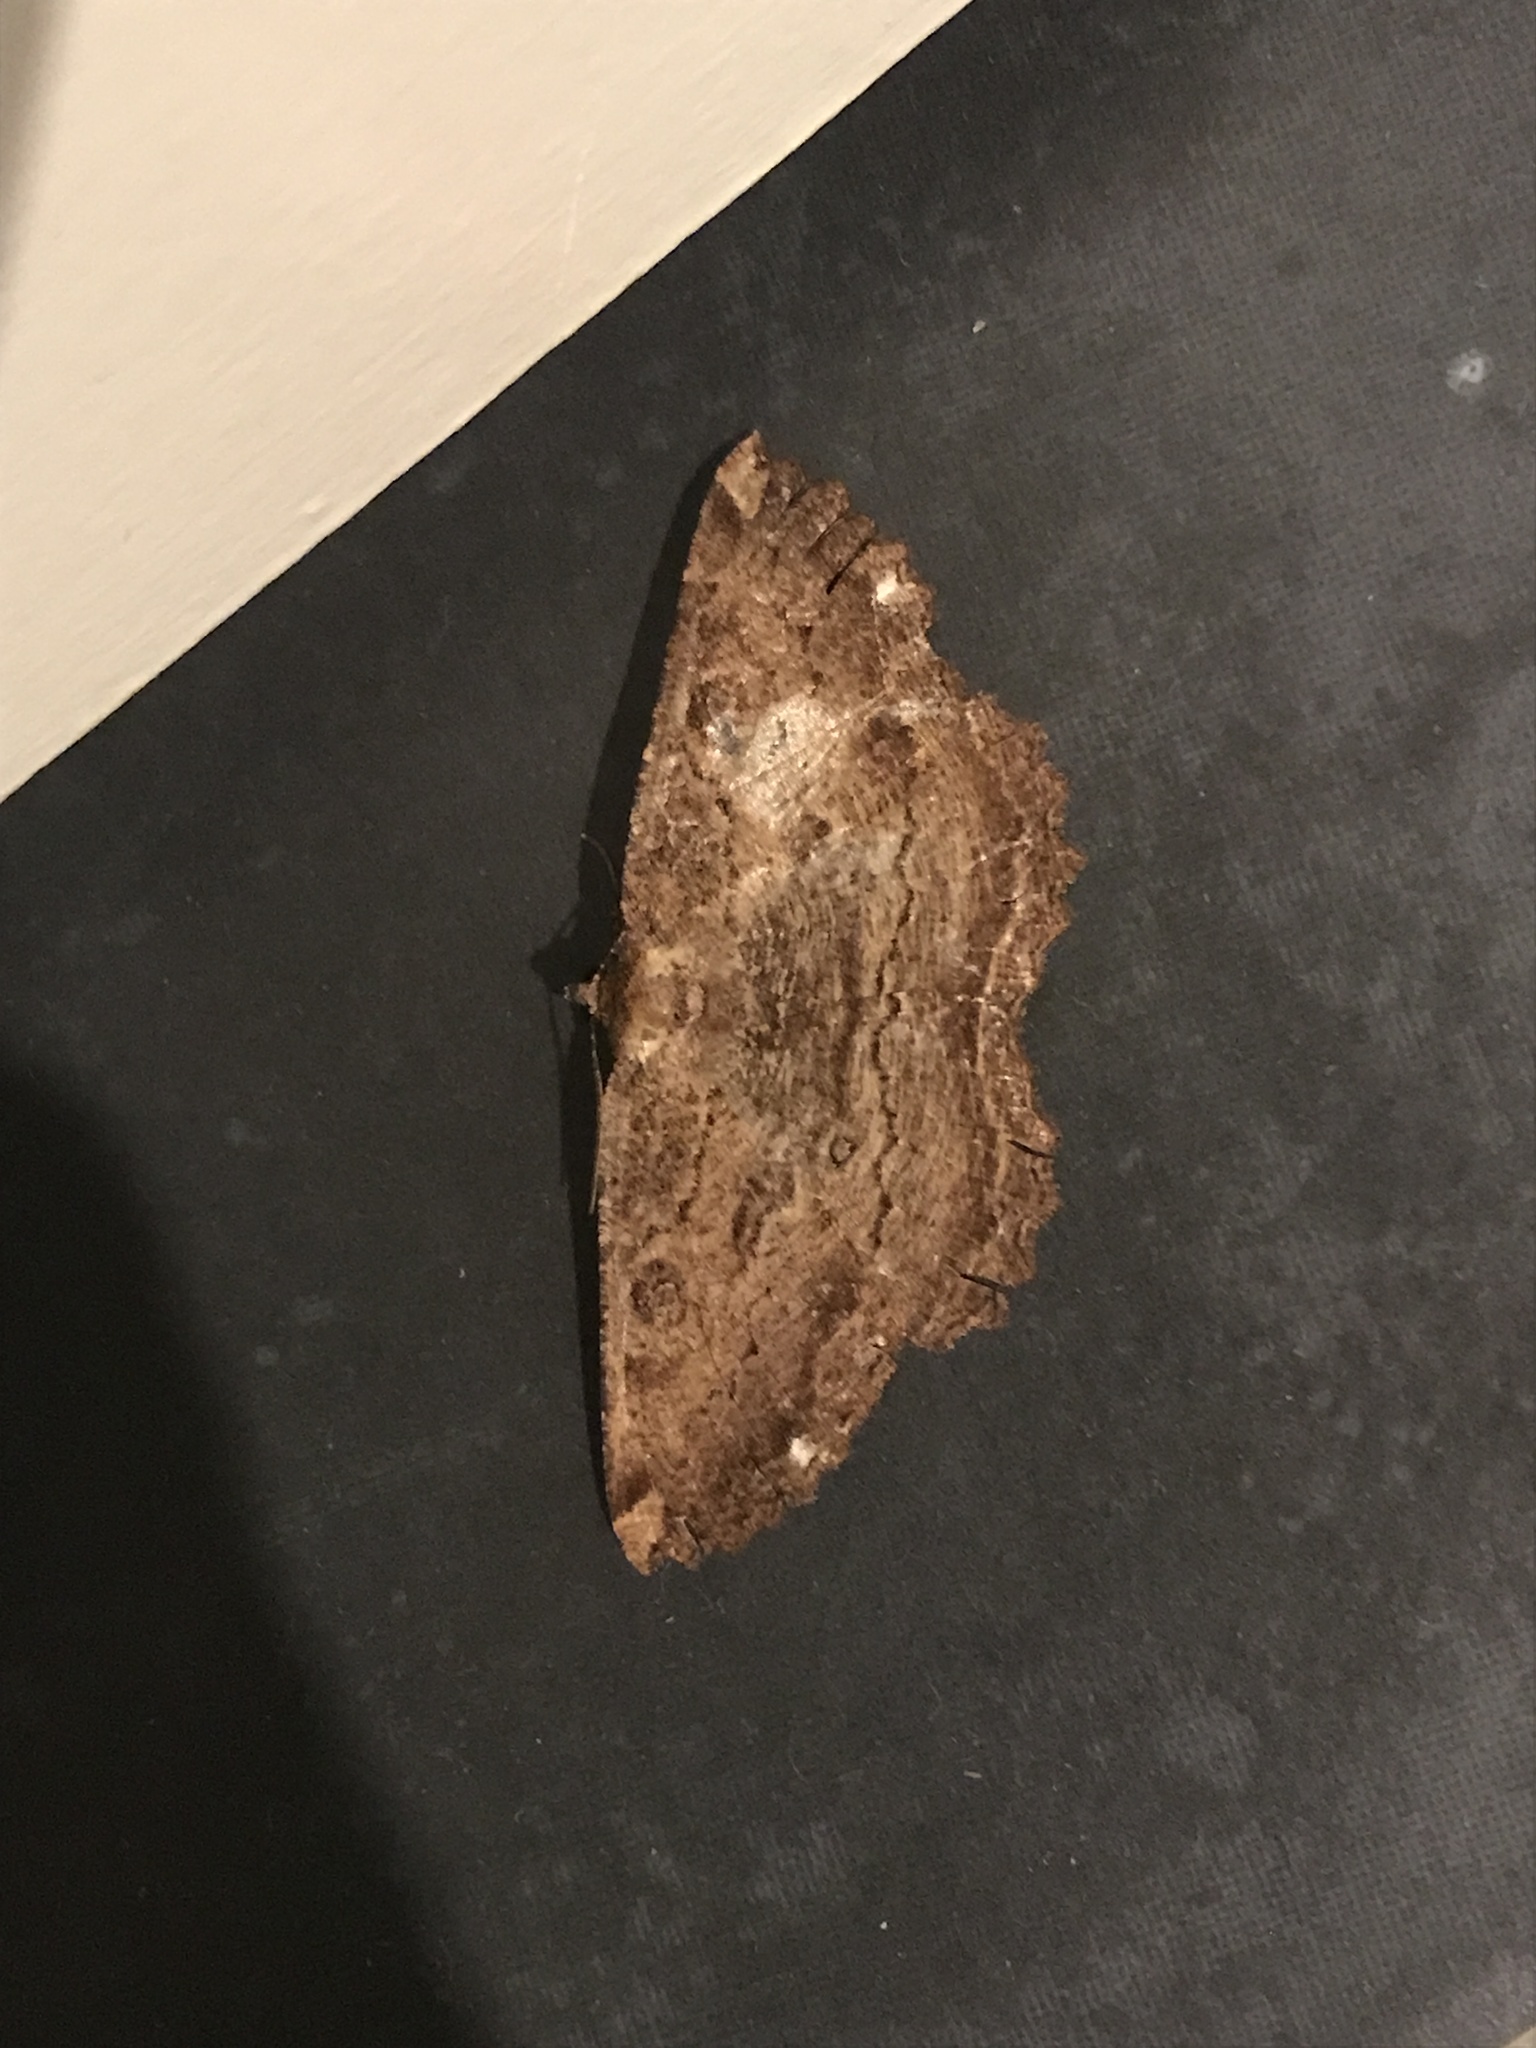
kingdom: Animalia
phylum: Arthropoda
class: Insecta
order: Lepidoptera
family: Geometridae
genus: Gellonia
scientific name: Gellonia dejectaria
